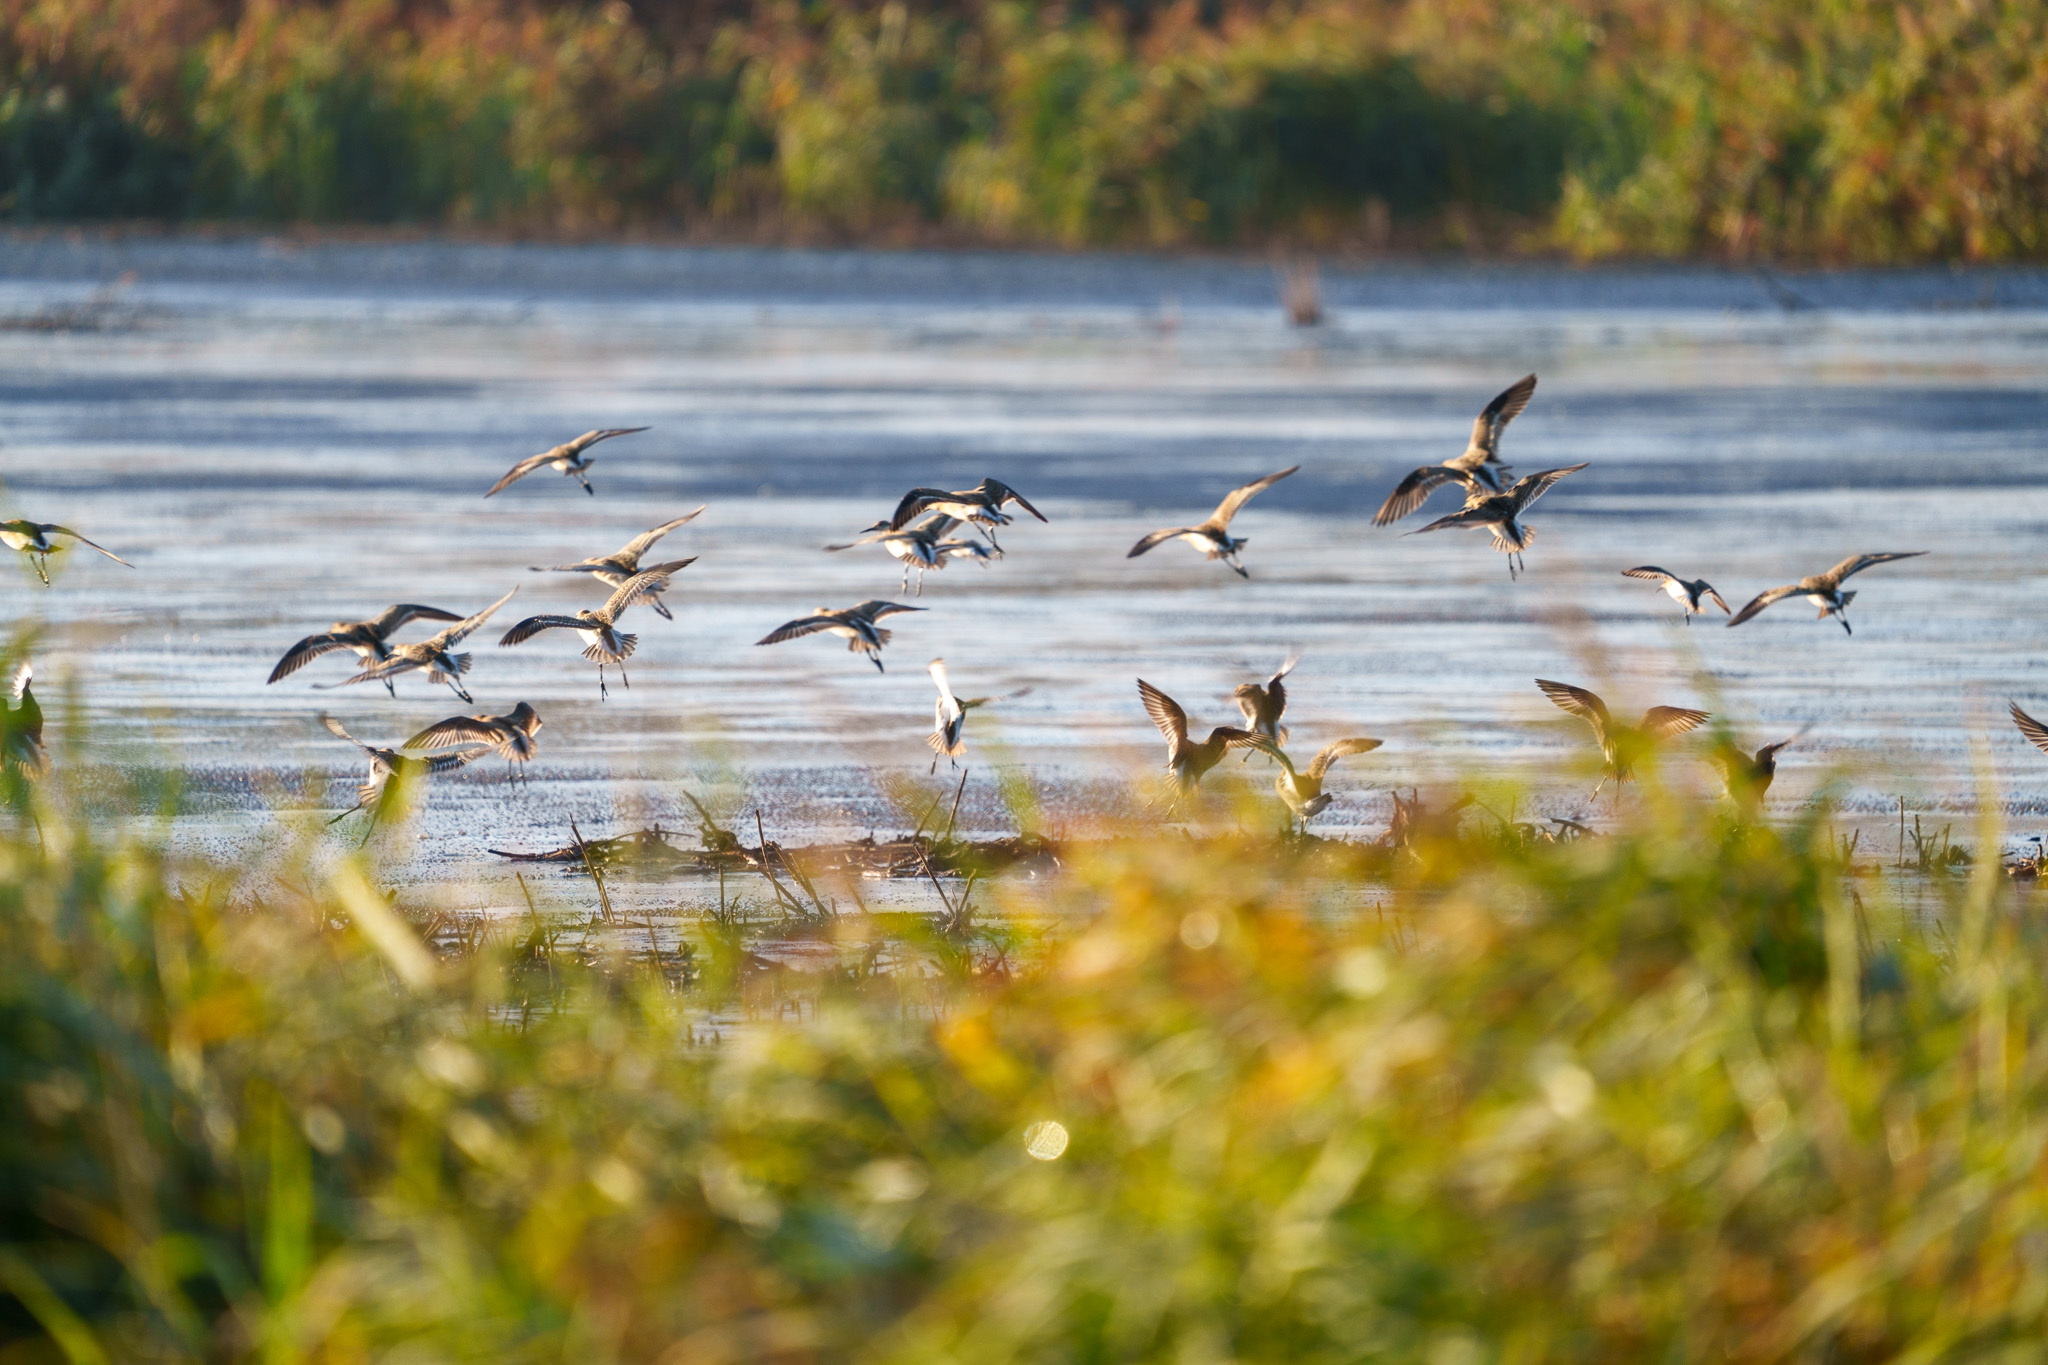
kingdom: Animalia
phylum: Chordata
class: Aves
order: Charadriiformes
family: Scolopacidae
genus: Calidris
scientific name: Calidris pugnax
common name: Ruff
